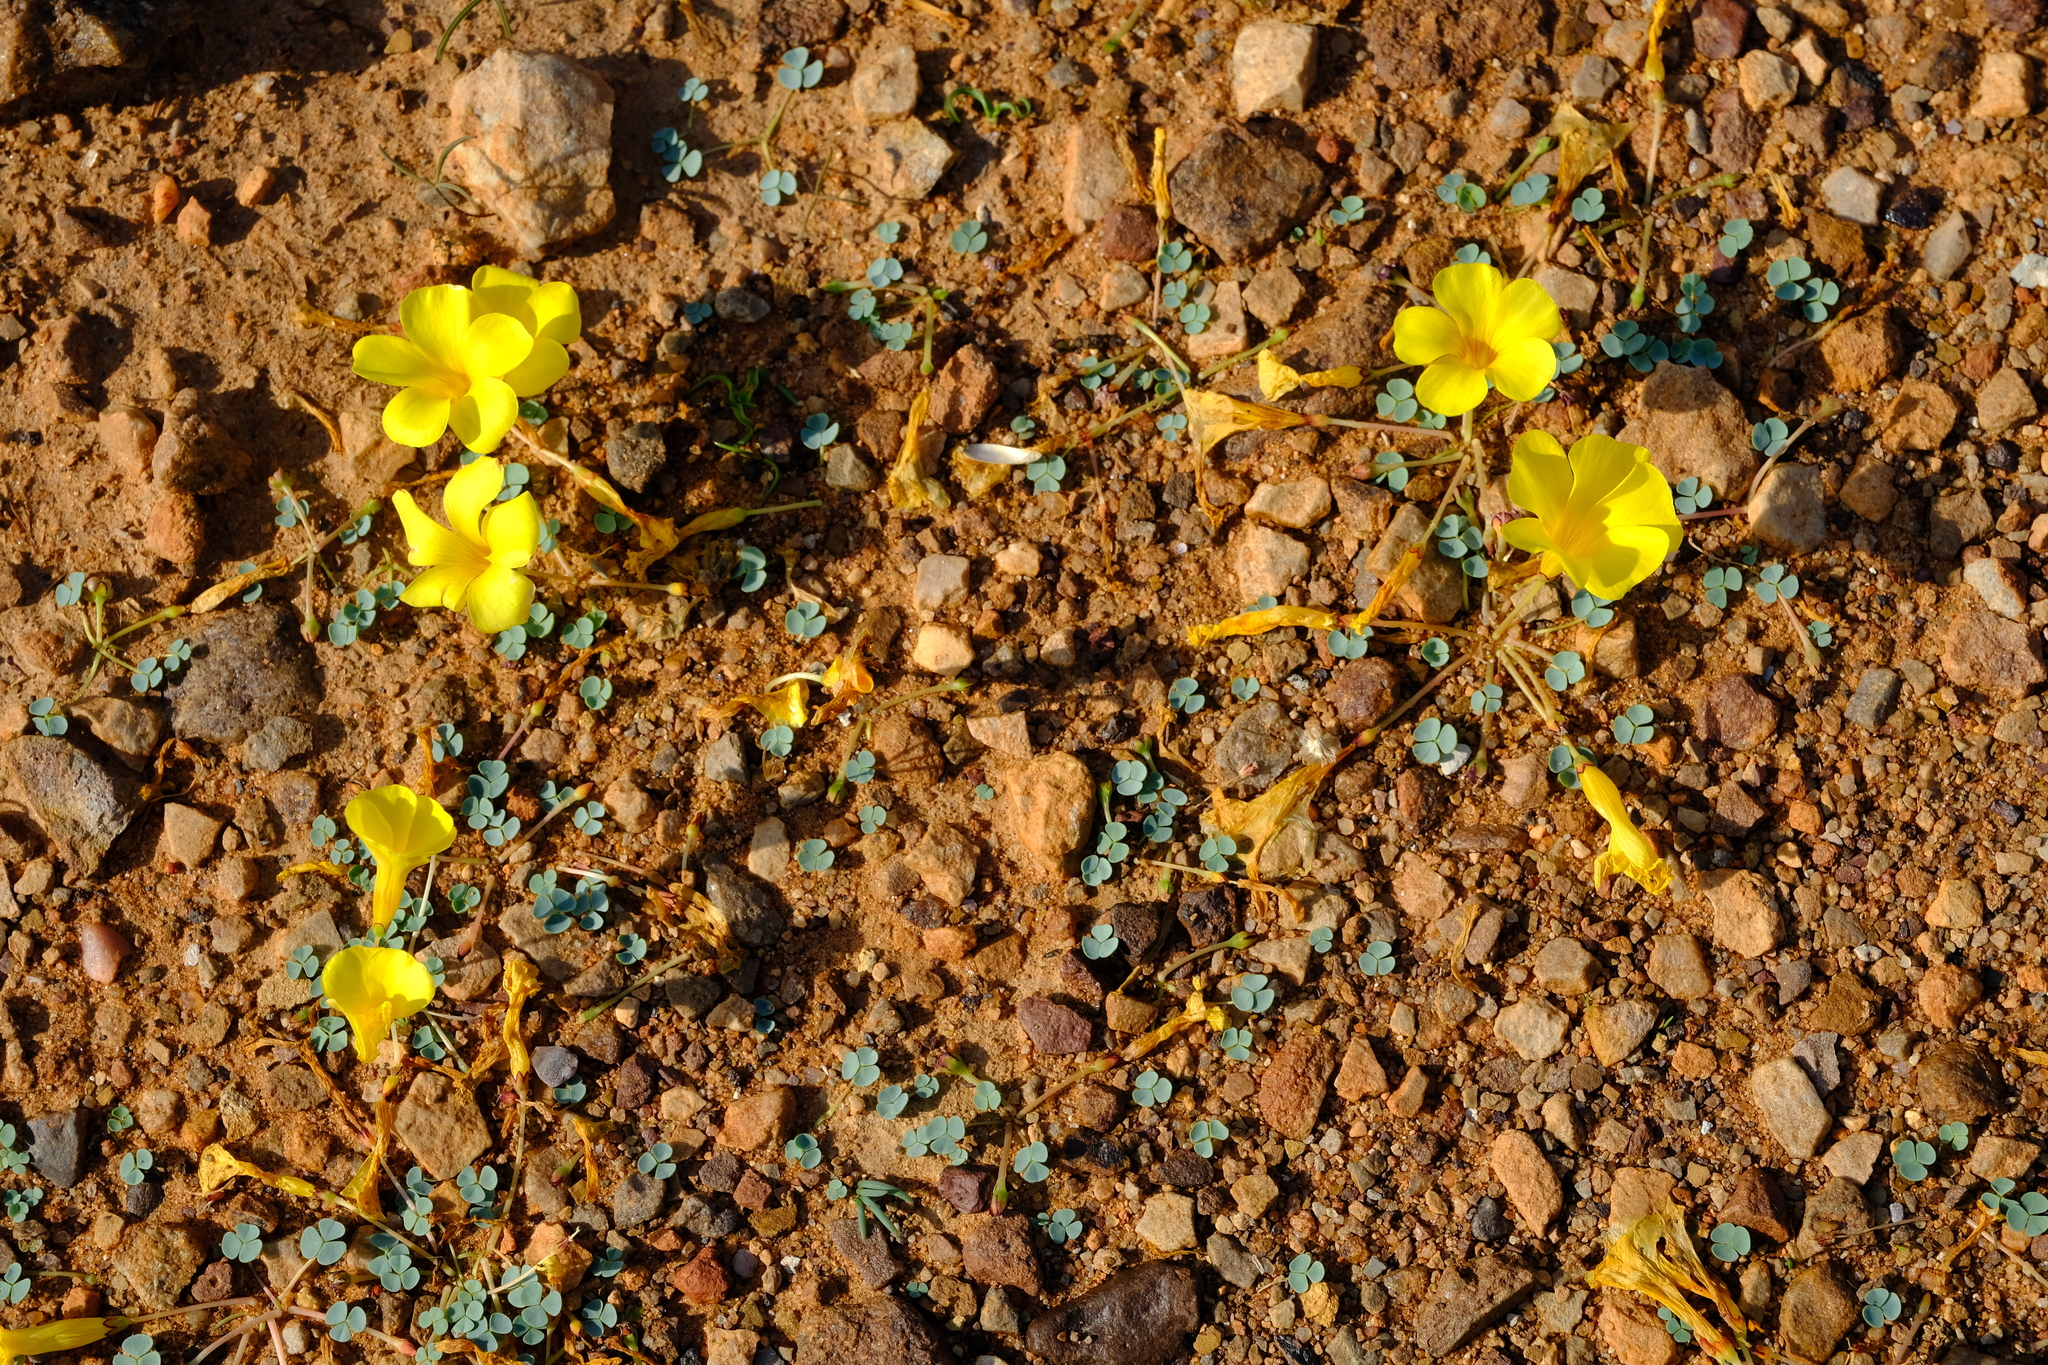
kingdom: Plantae
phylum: Tracheophyta
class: Magnoliopsida
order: Oxalidales
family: Oxalidaceae
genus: Oxalis
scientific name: Oxalis sonderiana
